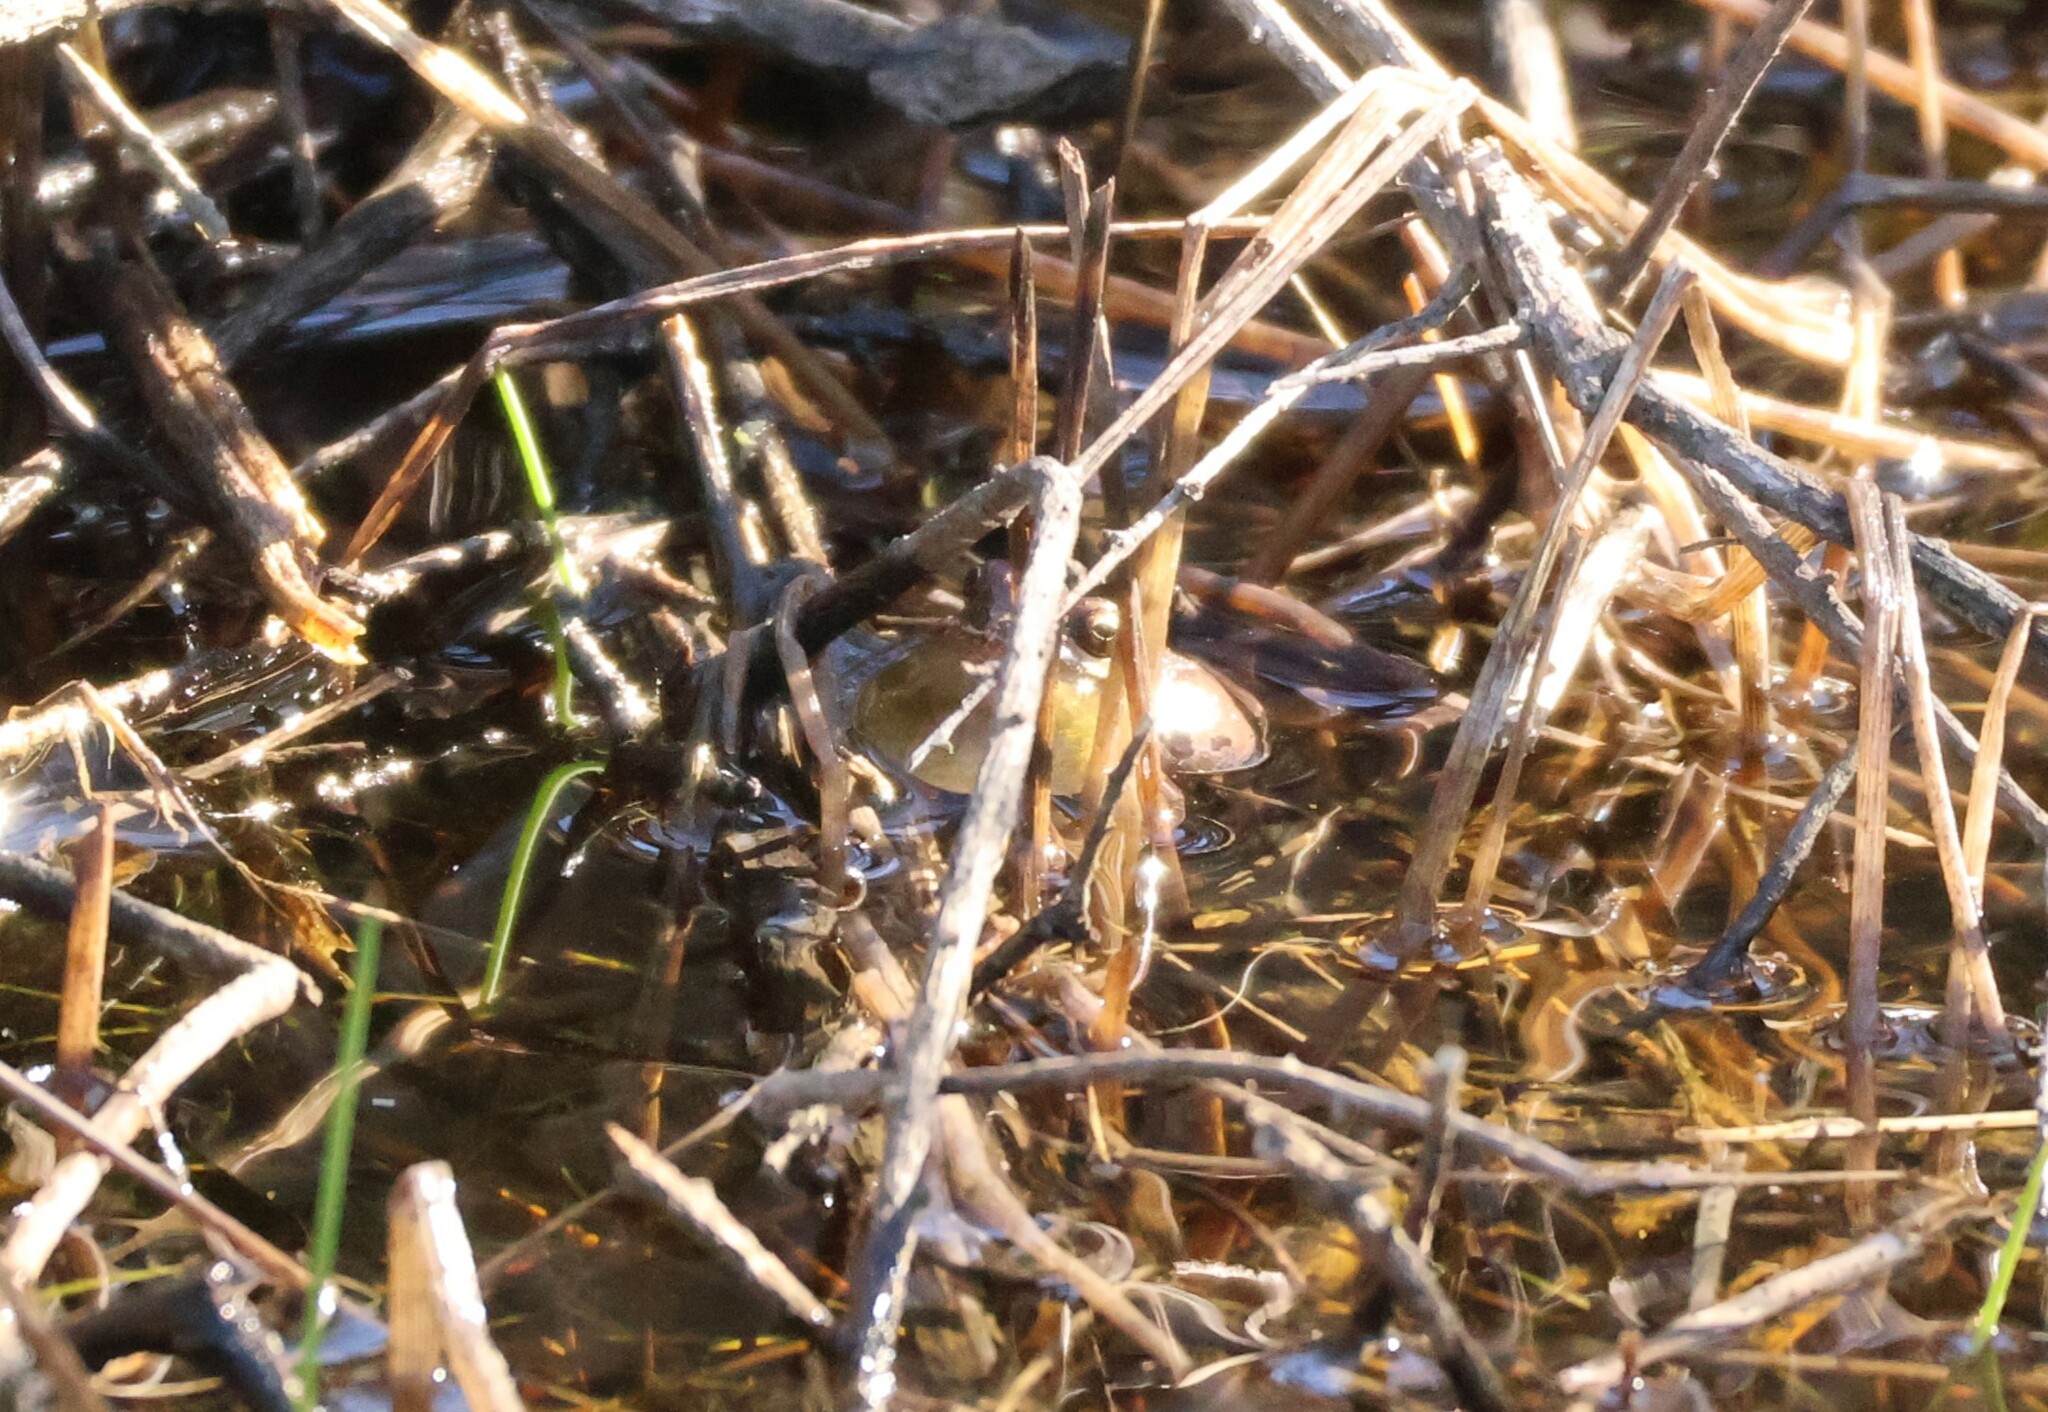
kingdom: Animalia
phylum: Chordata
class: Amphibia
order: Anura
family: Hylidae
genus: Pseudacris
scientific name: Pseudacris regilla
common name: Pacific chorus frog
